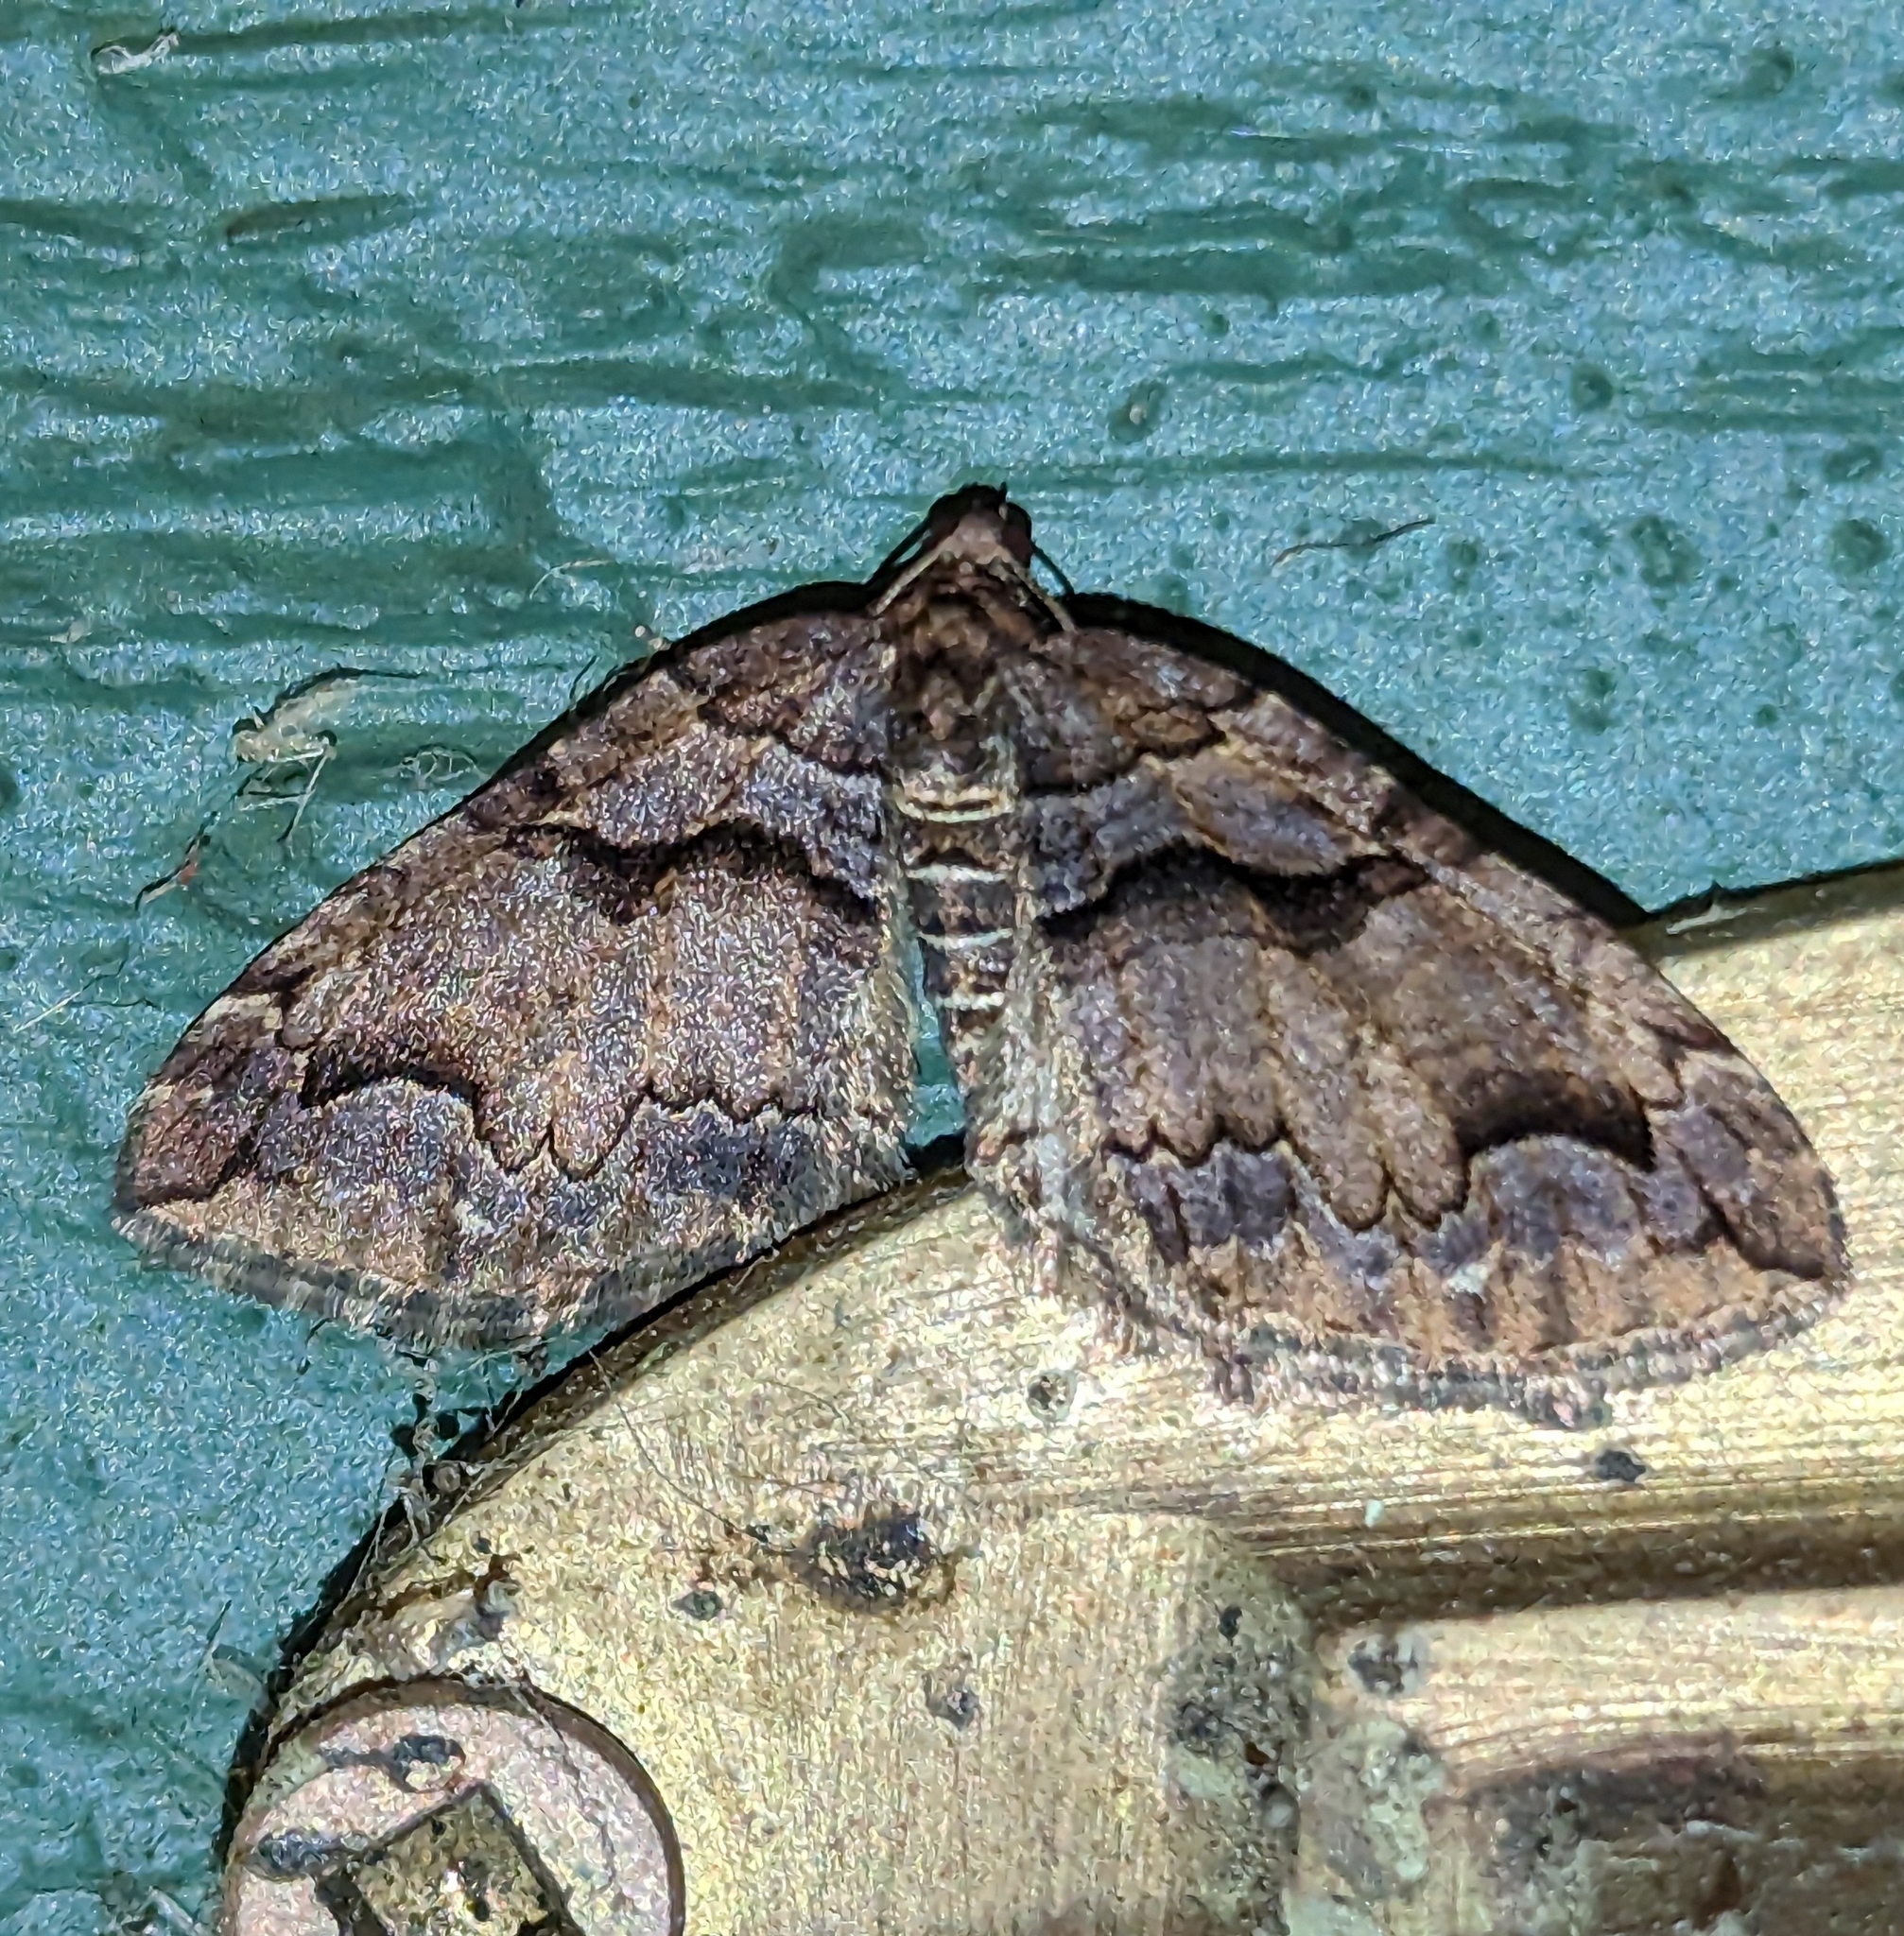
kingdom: Animalia
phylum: Arthropoda
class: Insecta
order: Lepidoptera
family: Geometridae
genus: Anticlea
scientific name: Anticlea vasiliata
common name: Variable carpet
